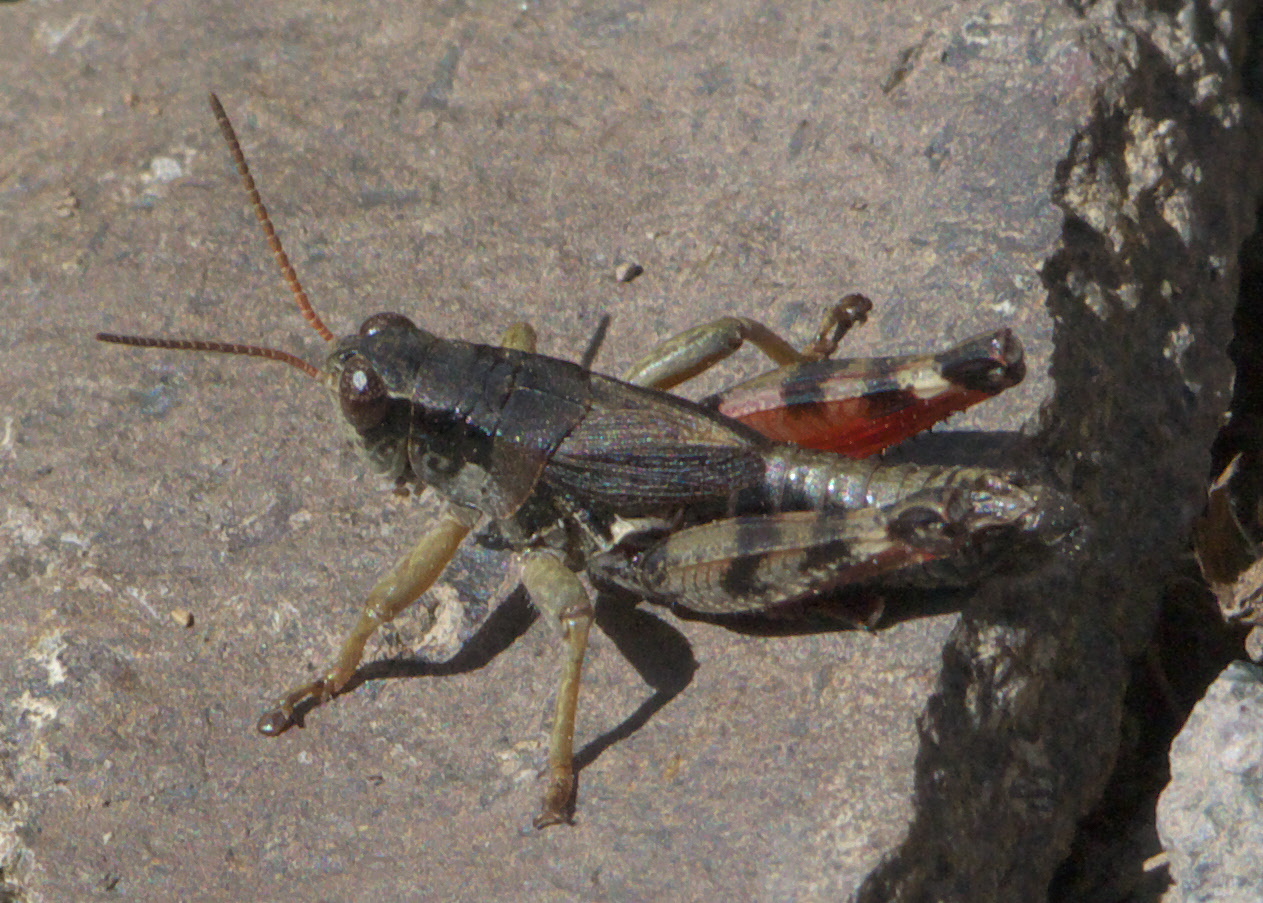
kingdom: Animalia
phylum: Arthropoda
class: Insecta
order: Orthoptera
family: Acrididae
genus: Melanoplus
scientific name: Melanoplus ourayensis
